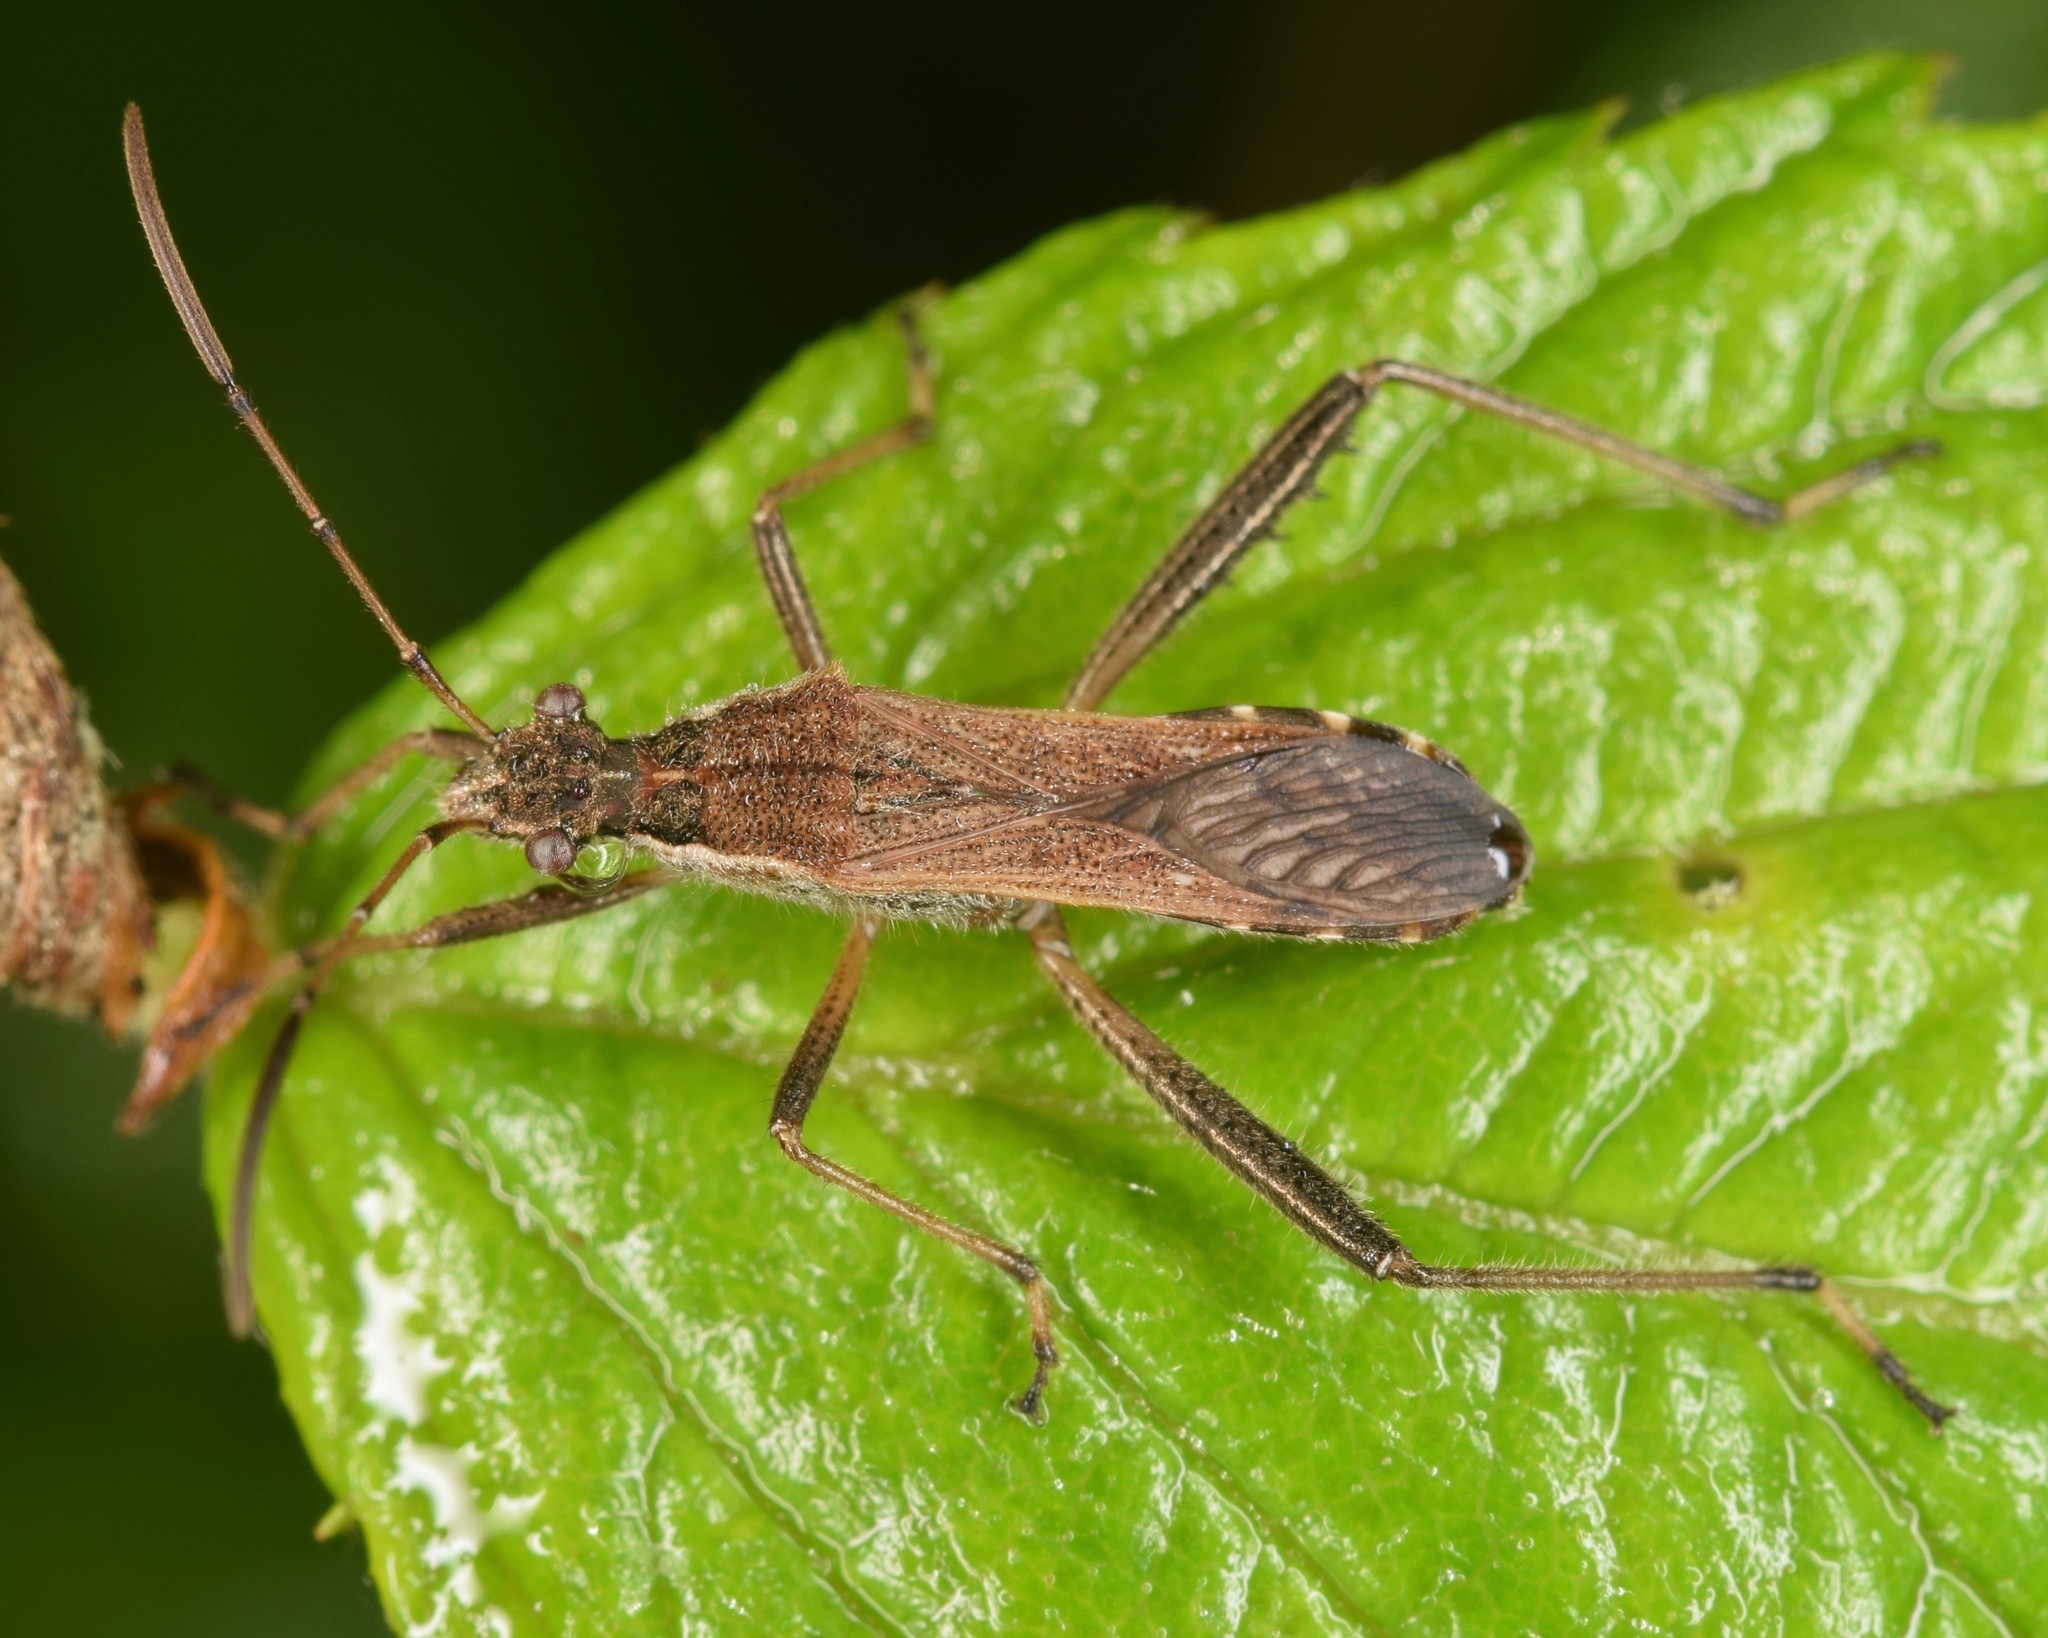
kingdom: Animalia
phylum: Arthropoda
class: Insecta
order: Hemiptera
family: Alydidae
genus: Alydus
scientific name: Alydus pilosulus
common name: Broad-headed bug
